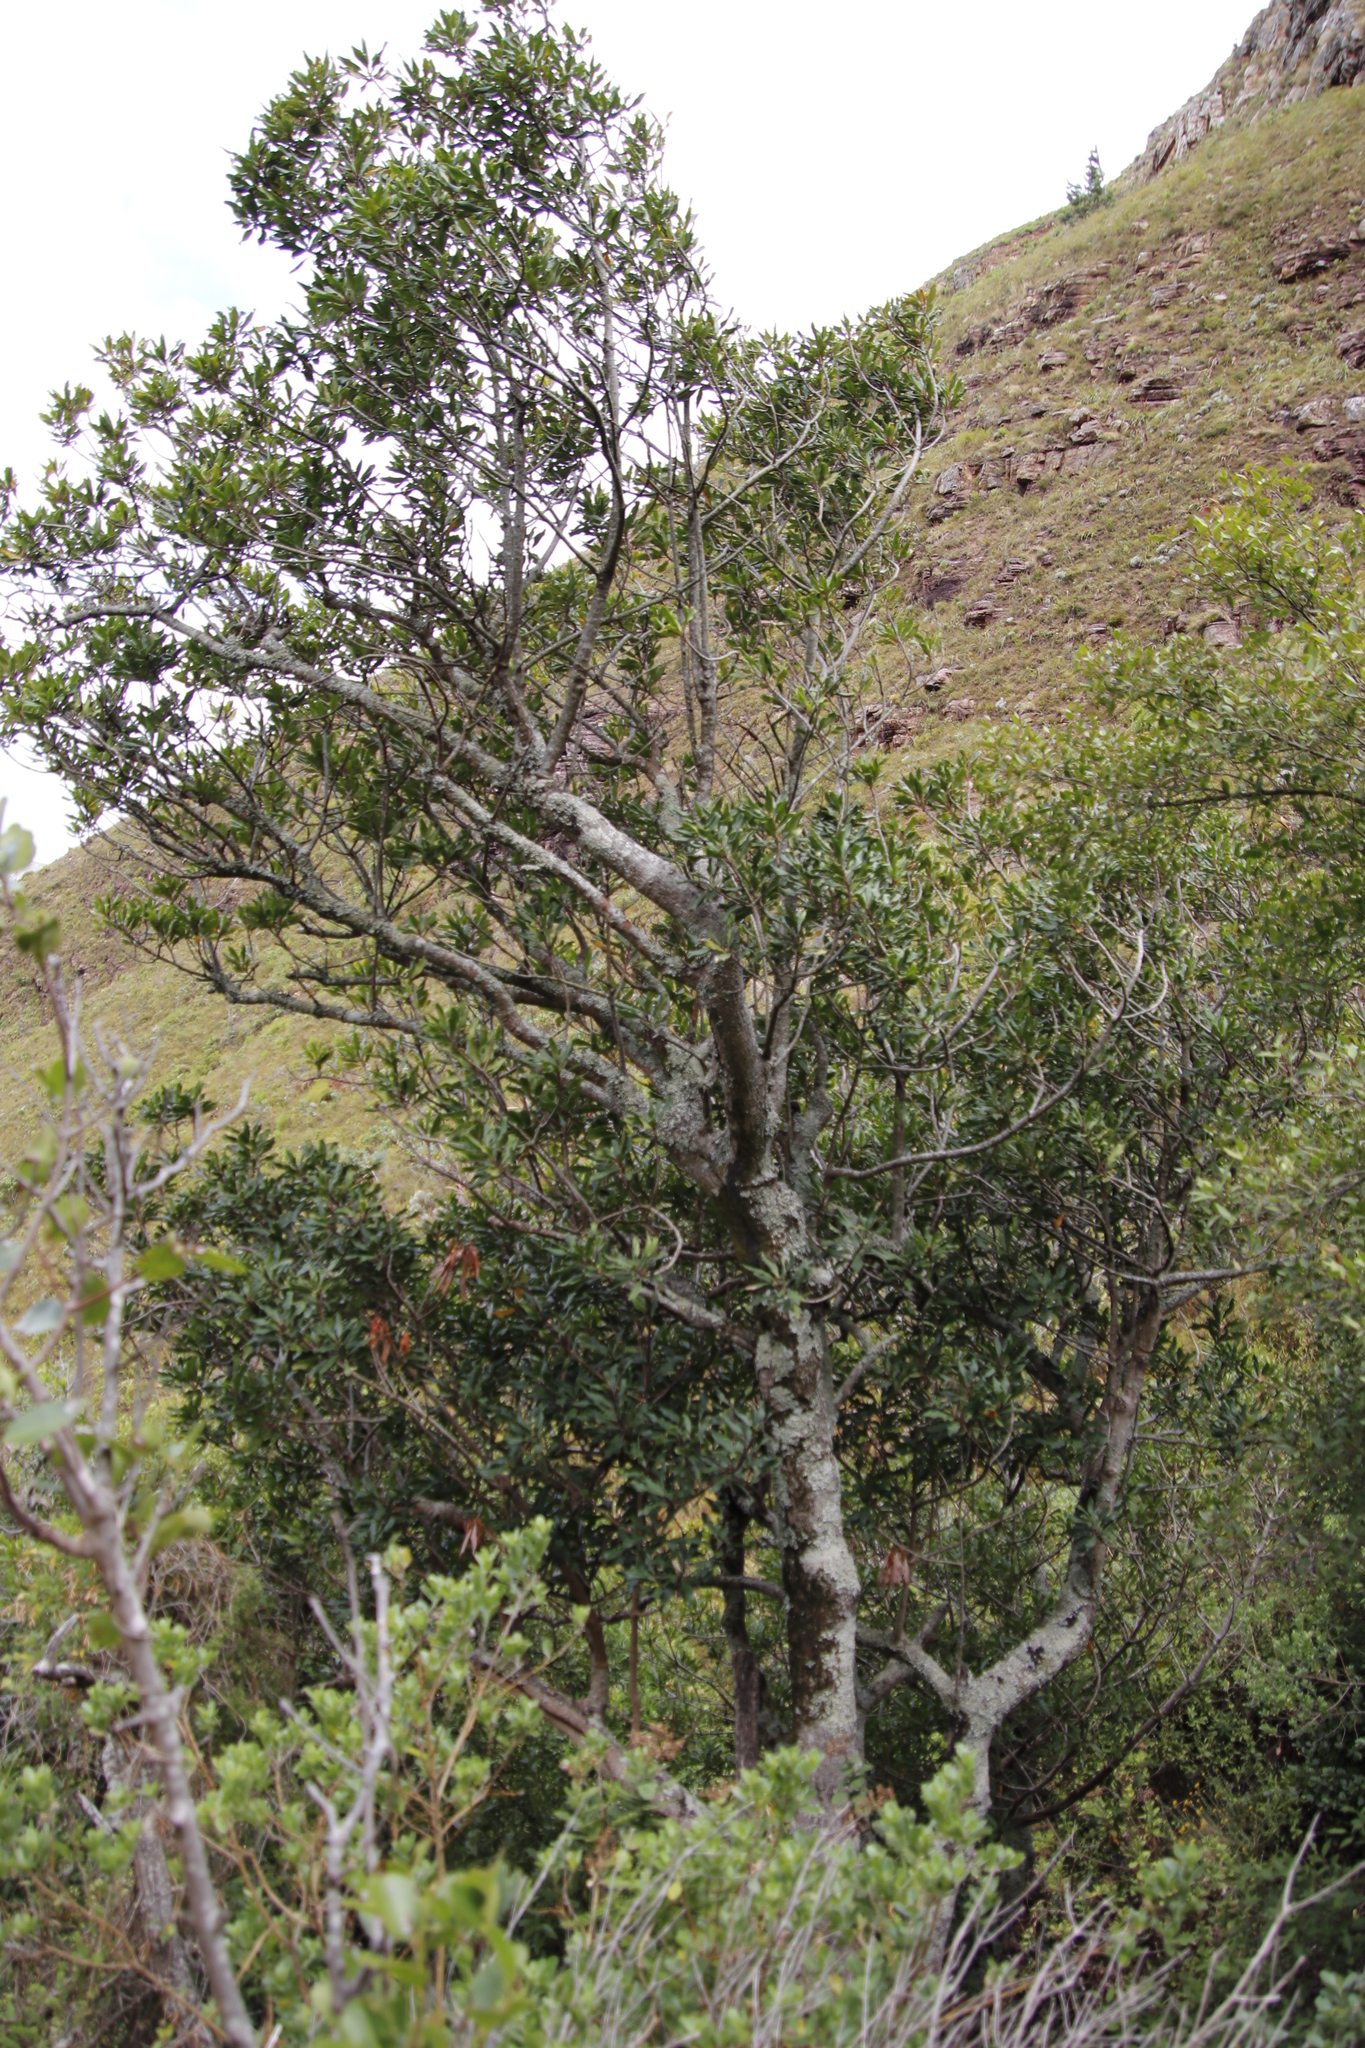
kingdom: Plantae
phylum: Tracheophyta
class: Magnoliopsida
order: Ericales
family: Primulaceae
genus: Myrsine
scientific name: Myrsine melanophloeos
